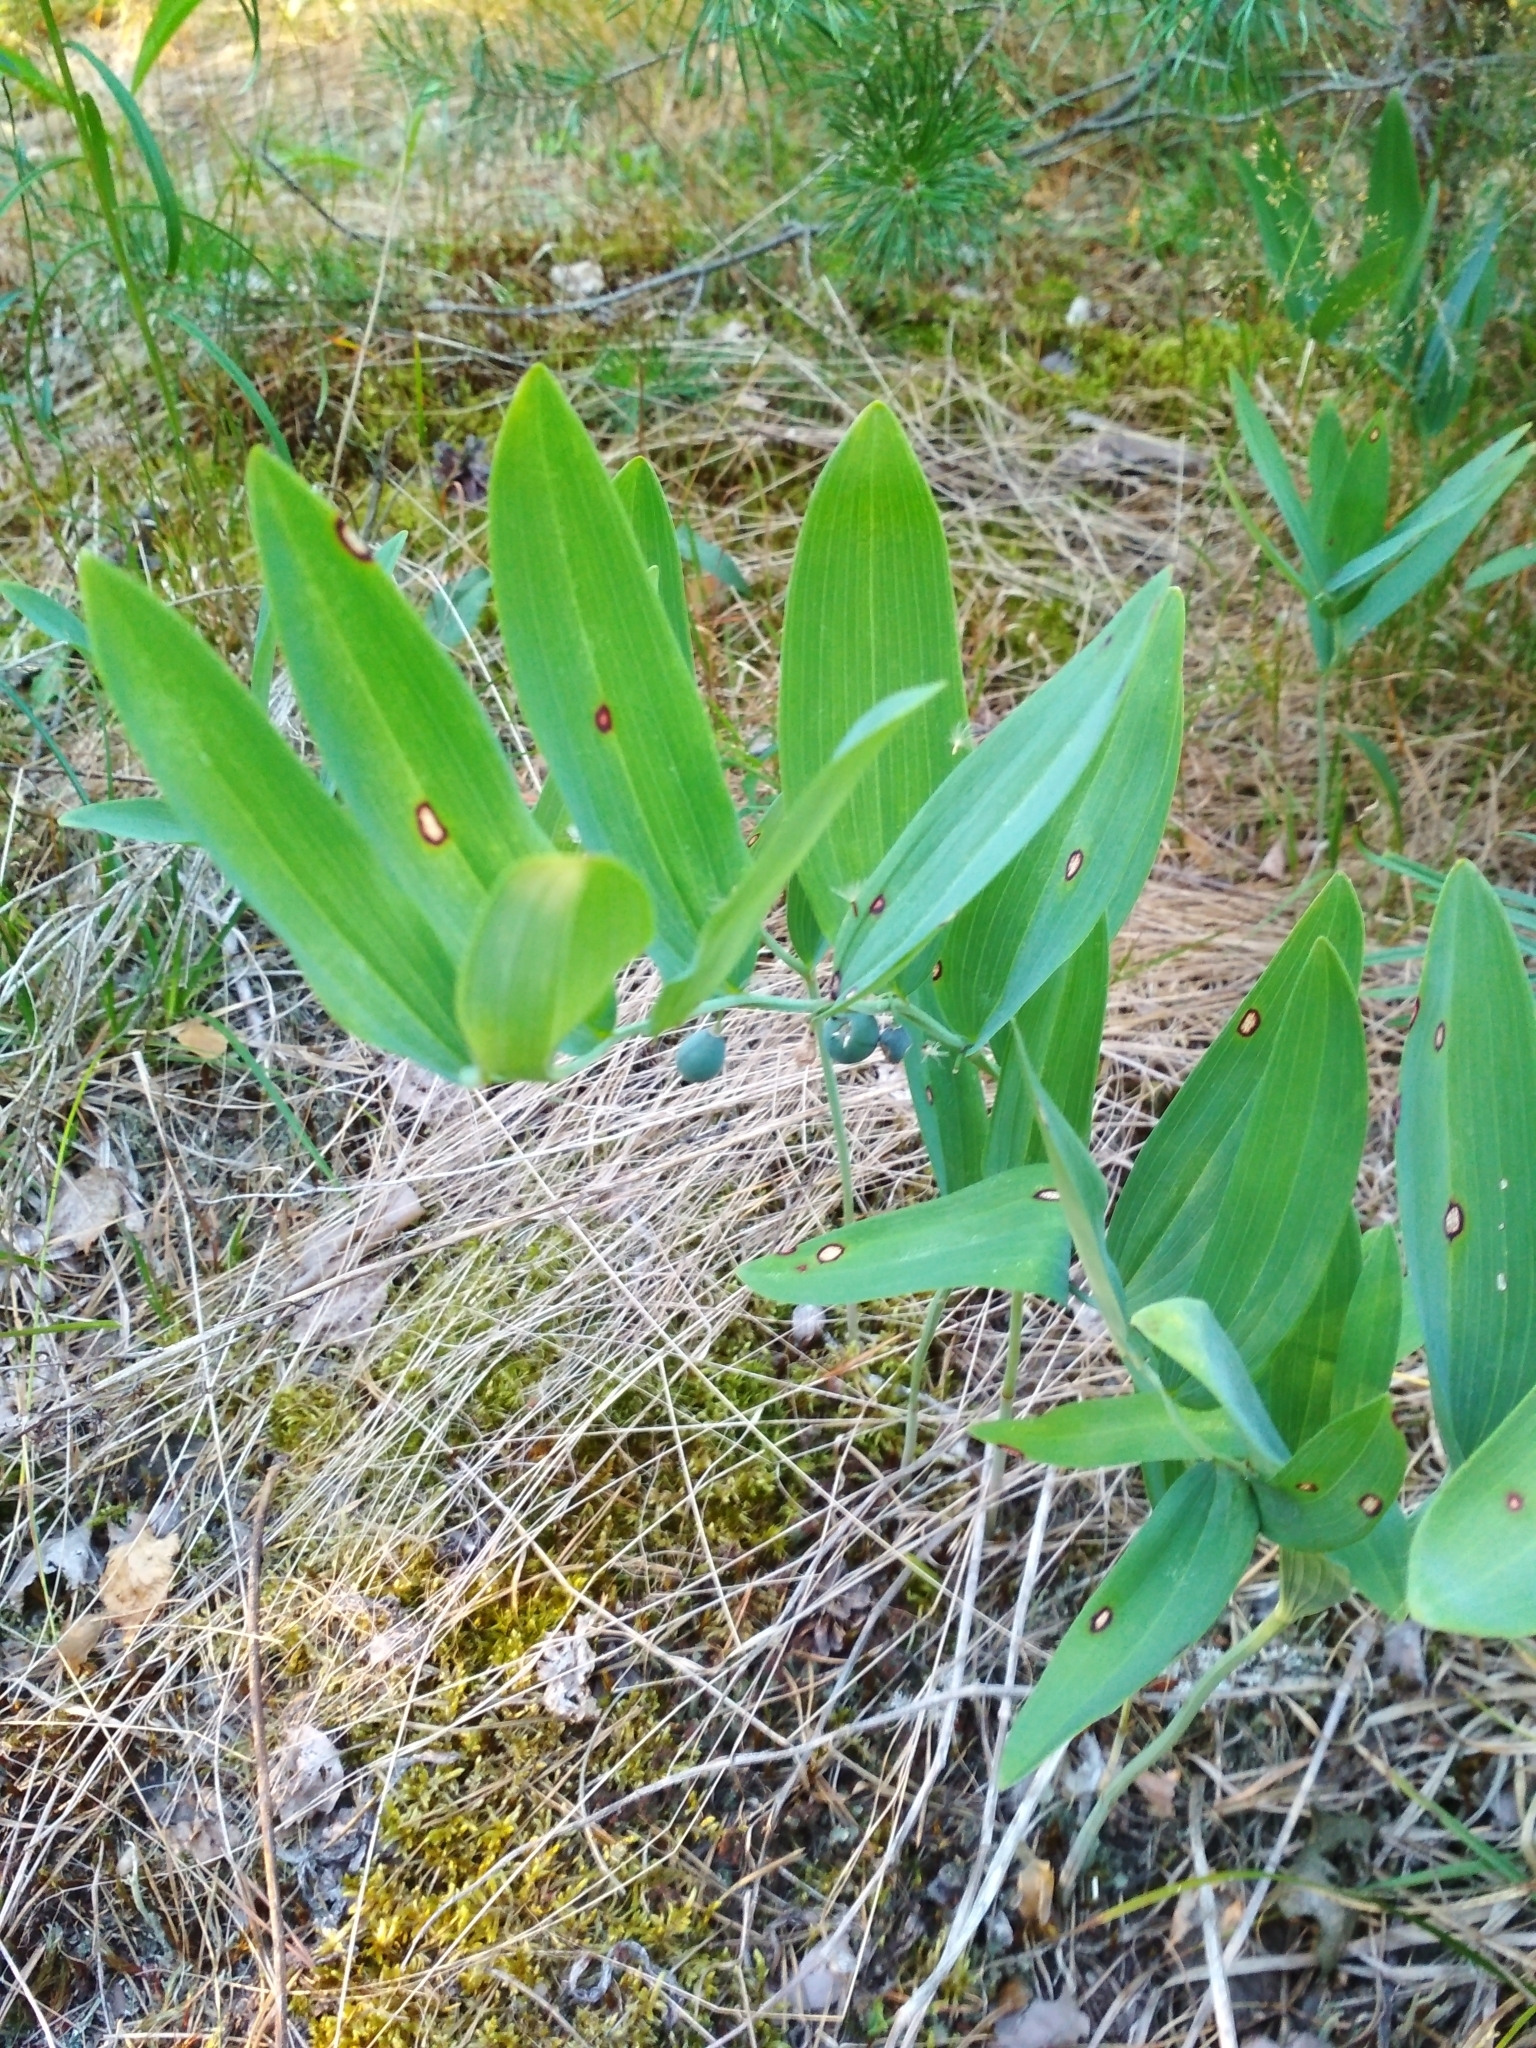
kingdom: Plantae
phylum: Tracheophyta
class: Liliopsida
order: Asparagales
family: Asparagaceae
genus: Polygonatum
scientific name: Polygonatum odoratum
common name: Angular solomon's-seal
